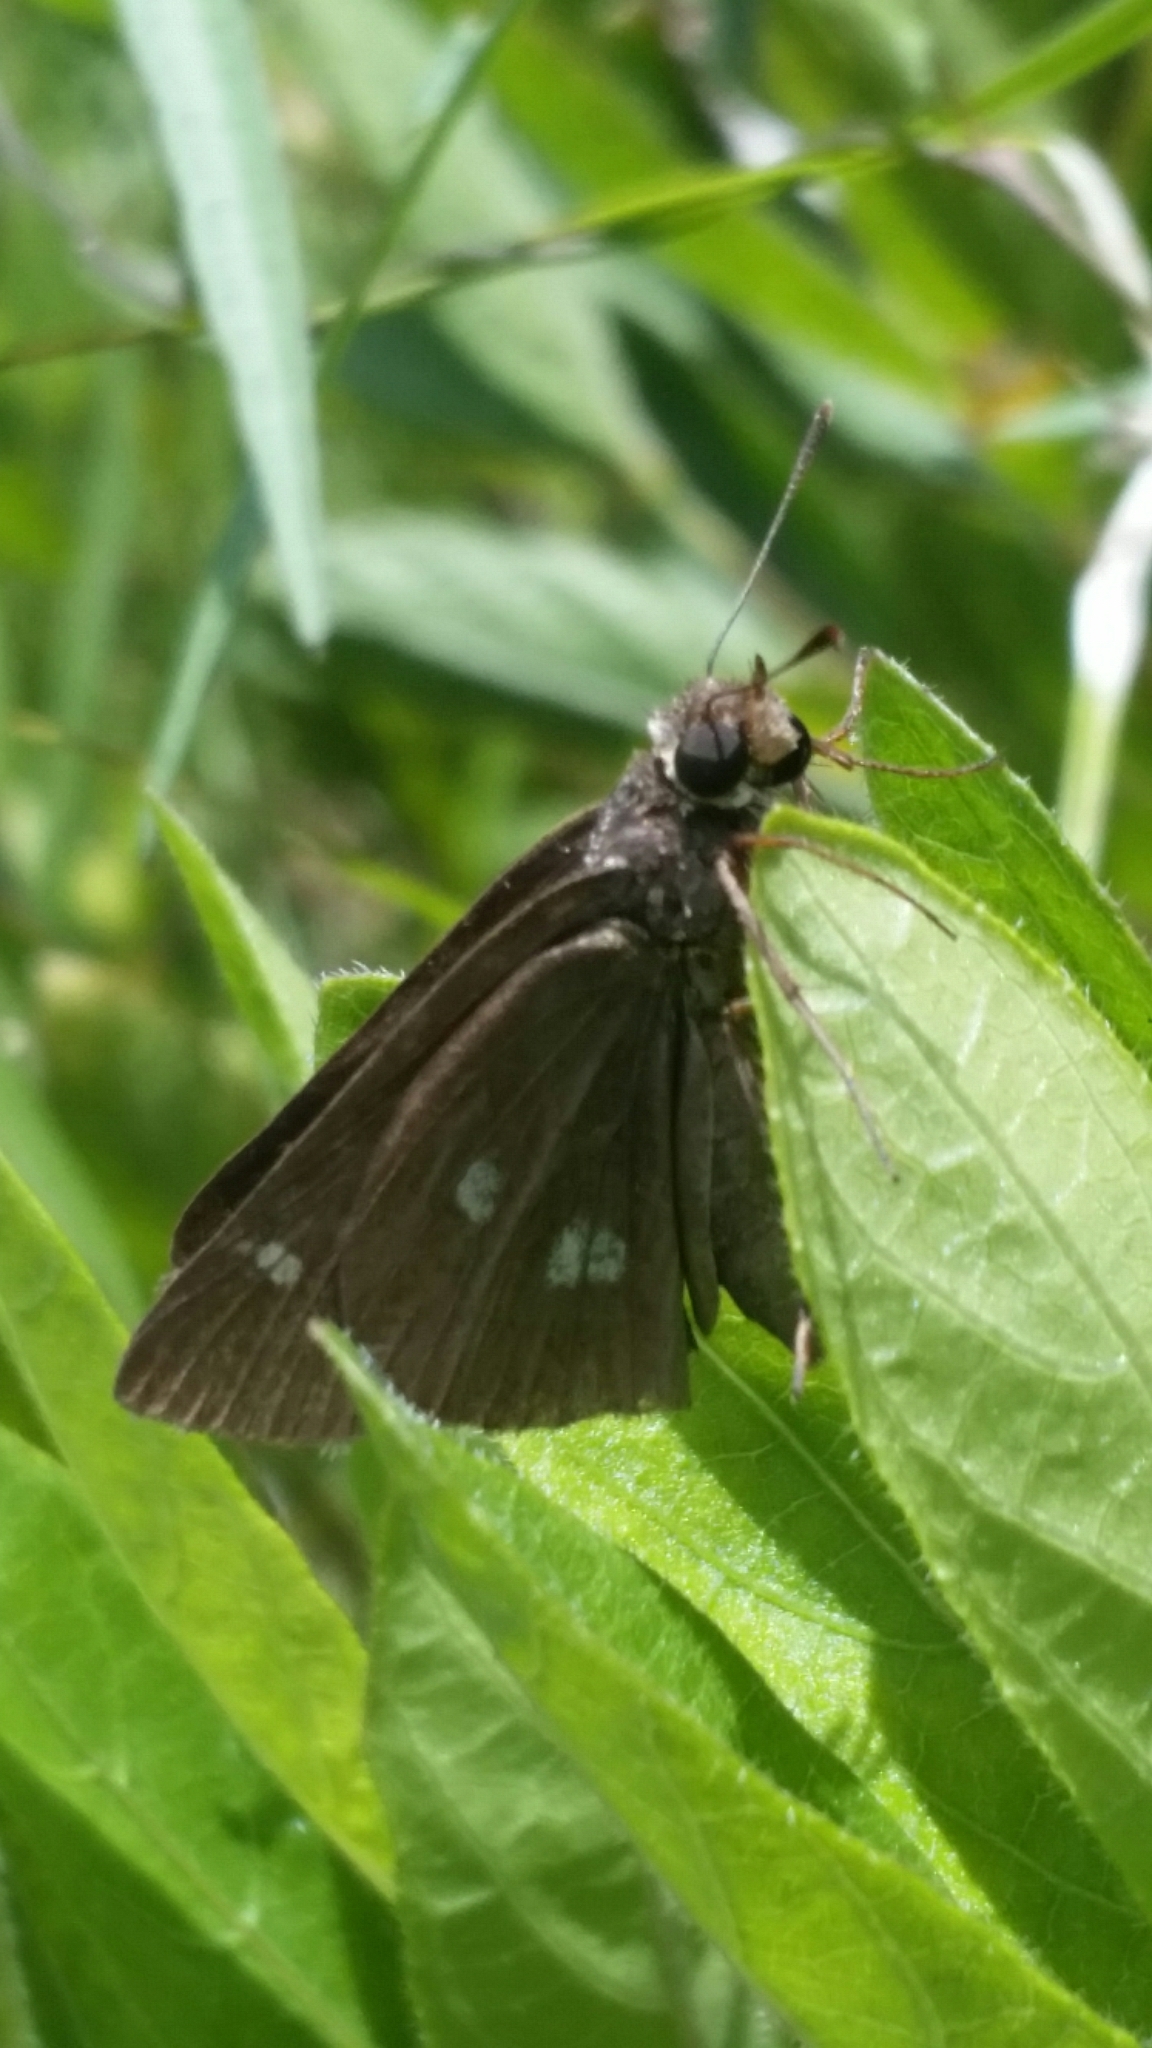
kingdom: Animalia
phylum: Arthropoda
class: Insecta
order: Lepidoptera
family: Hesperiidae
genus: Oligoria
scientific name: Oligoria maculata
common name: Twin-spot skipper
